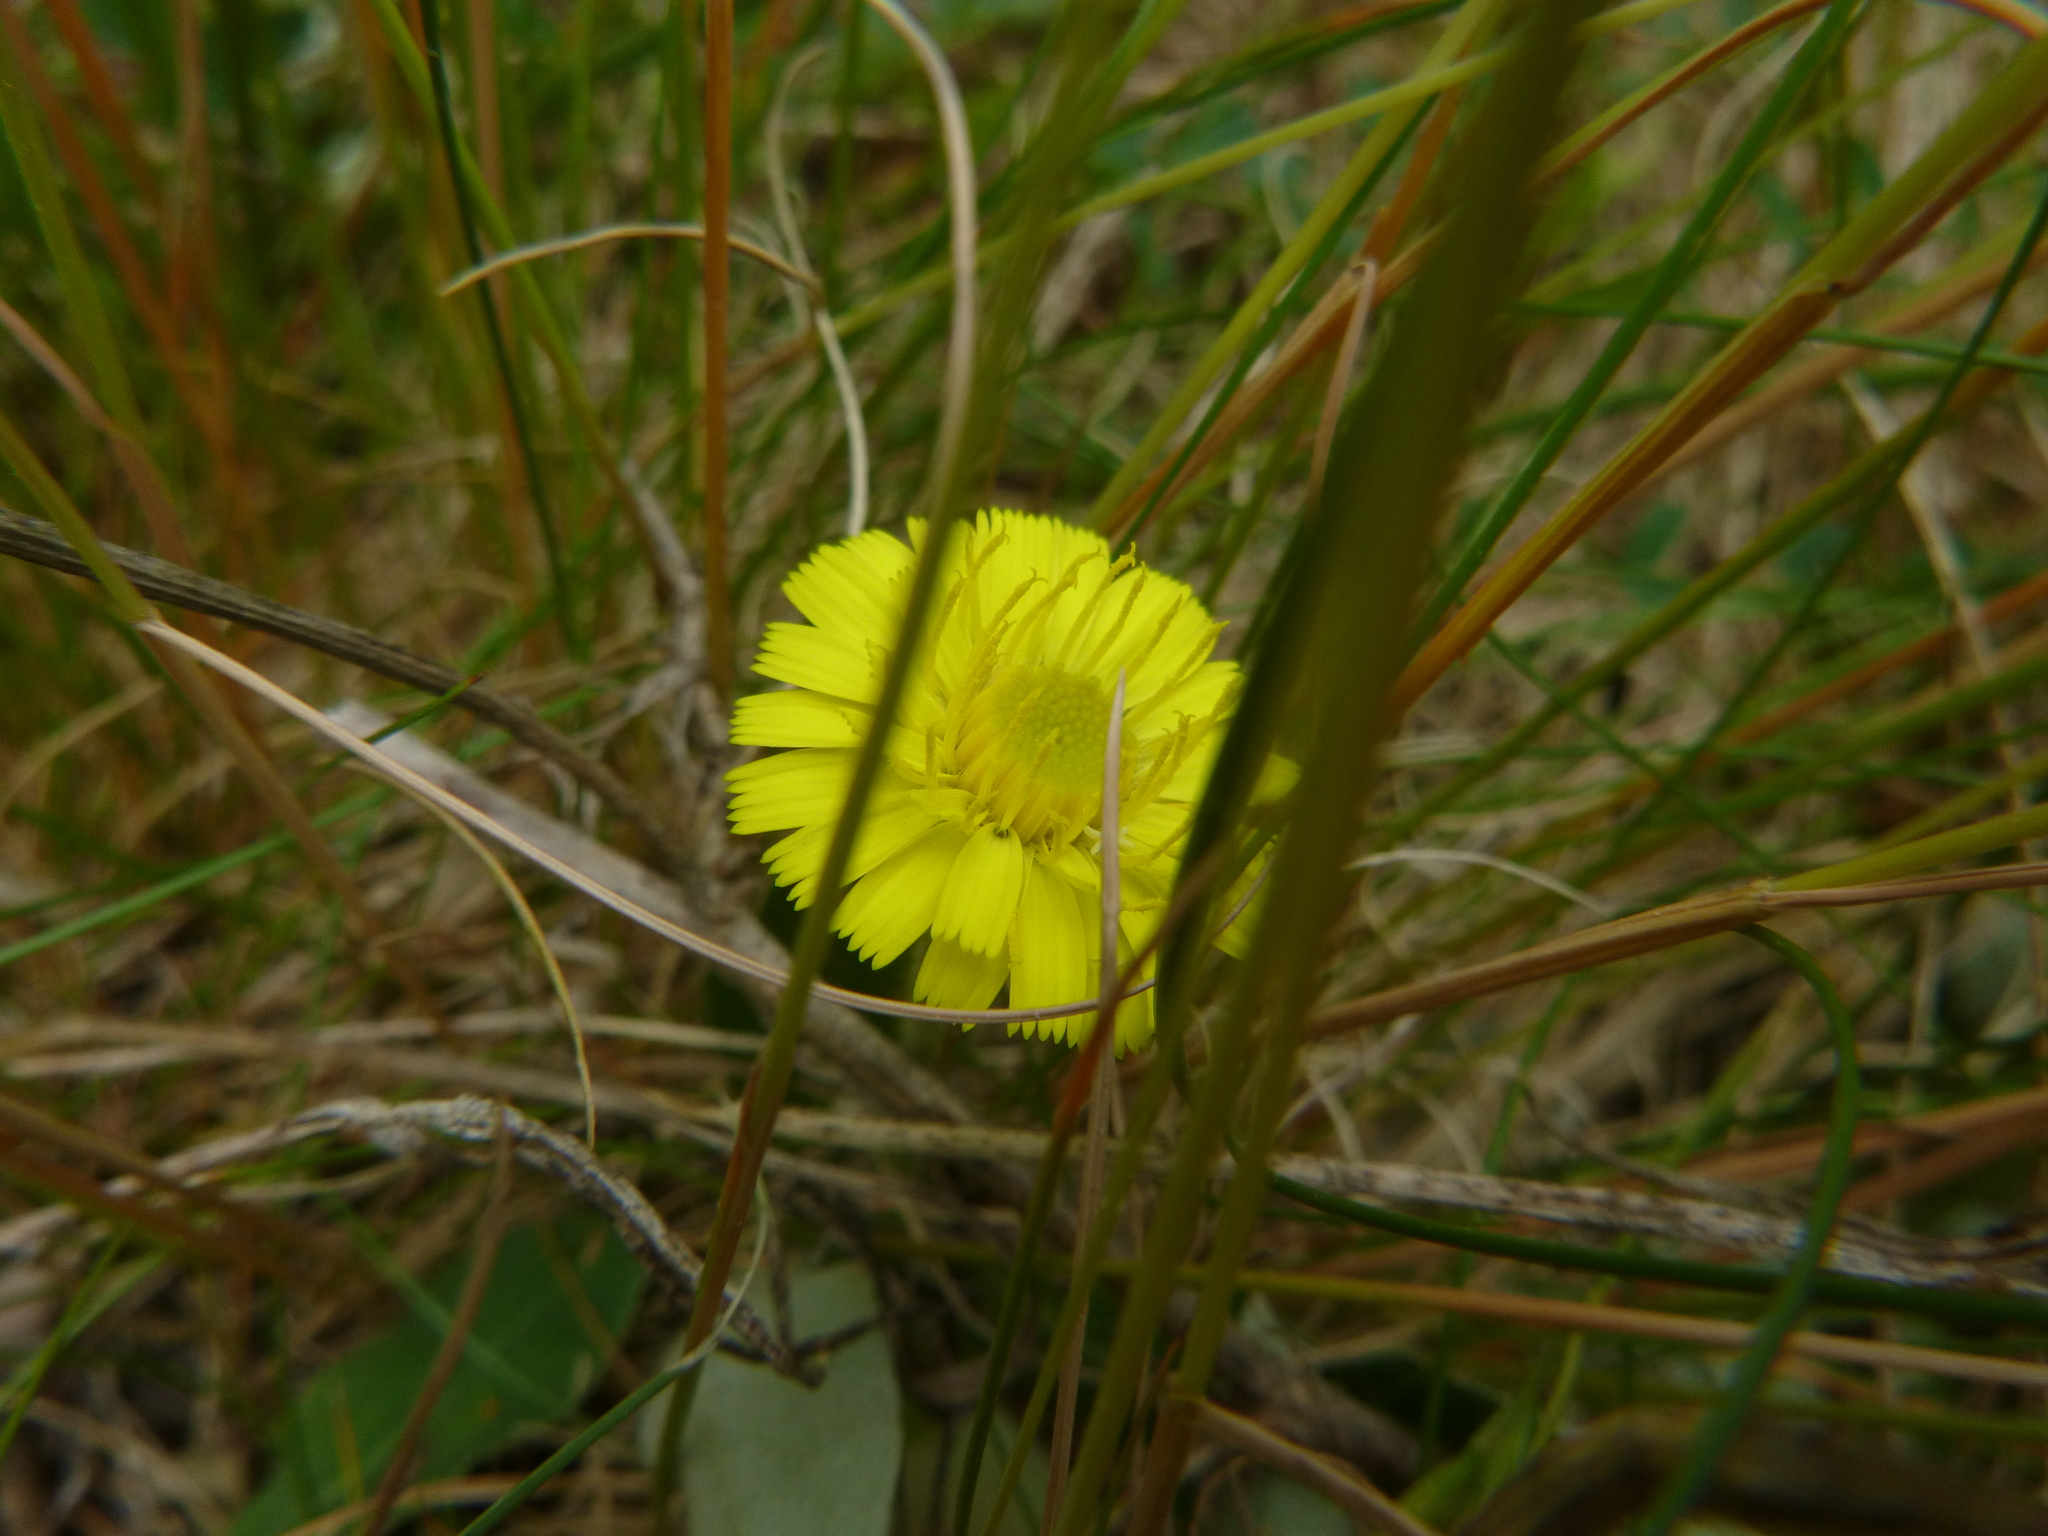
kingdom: Plantae
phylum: Tracheophyta
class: Magnoliopsida
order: Asterales
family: Asteraceae
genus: Pilosella
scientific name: Pilosella officinarum
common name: Mouse-ear hawkweed
